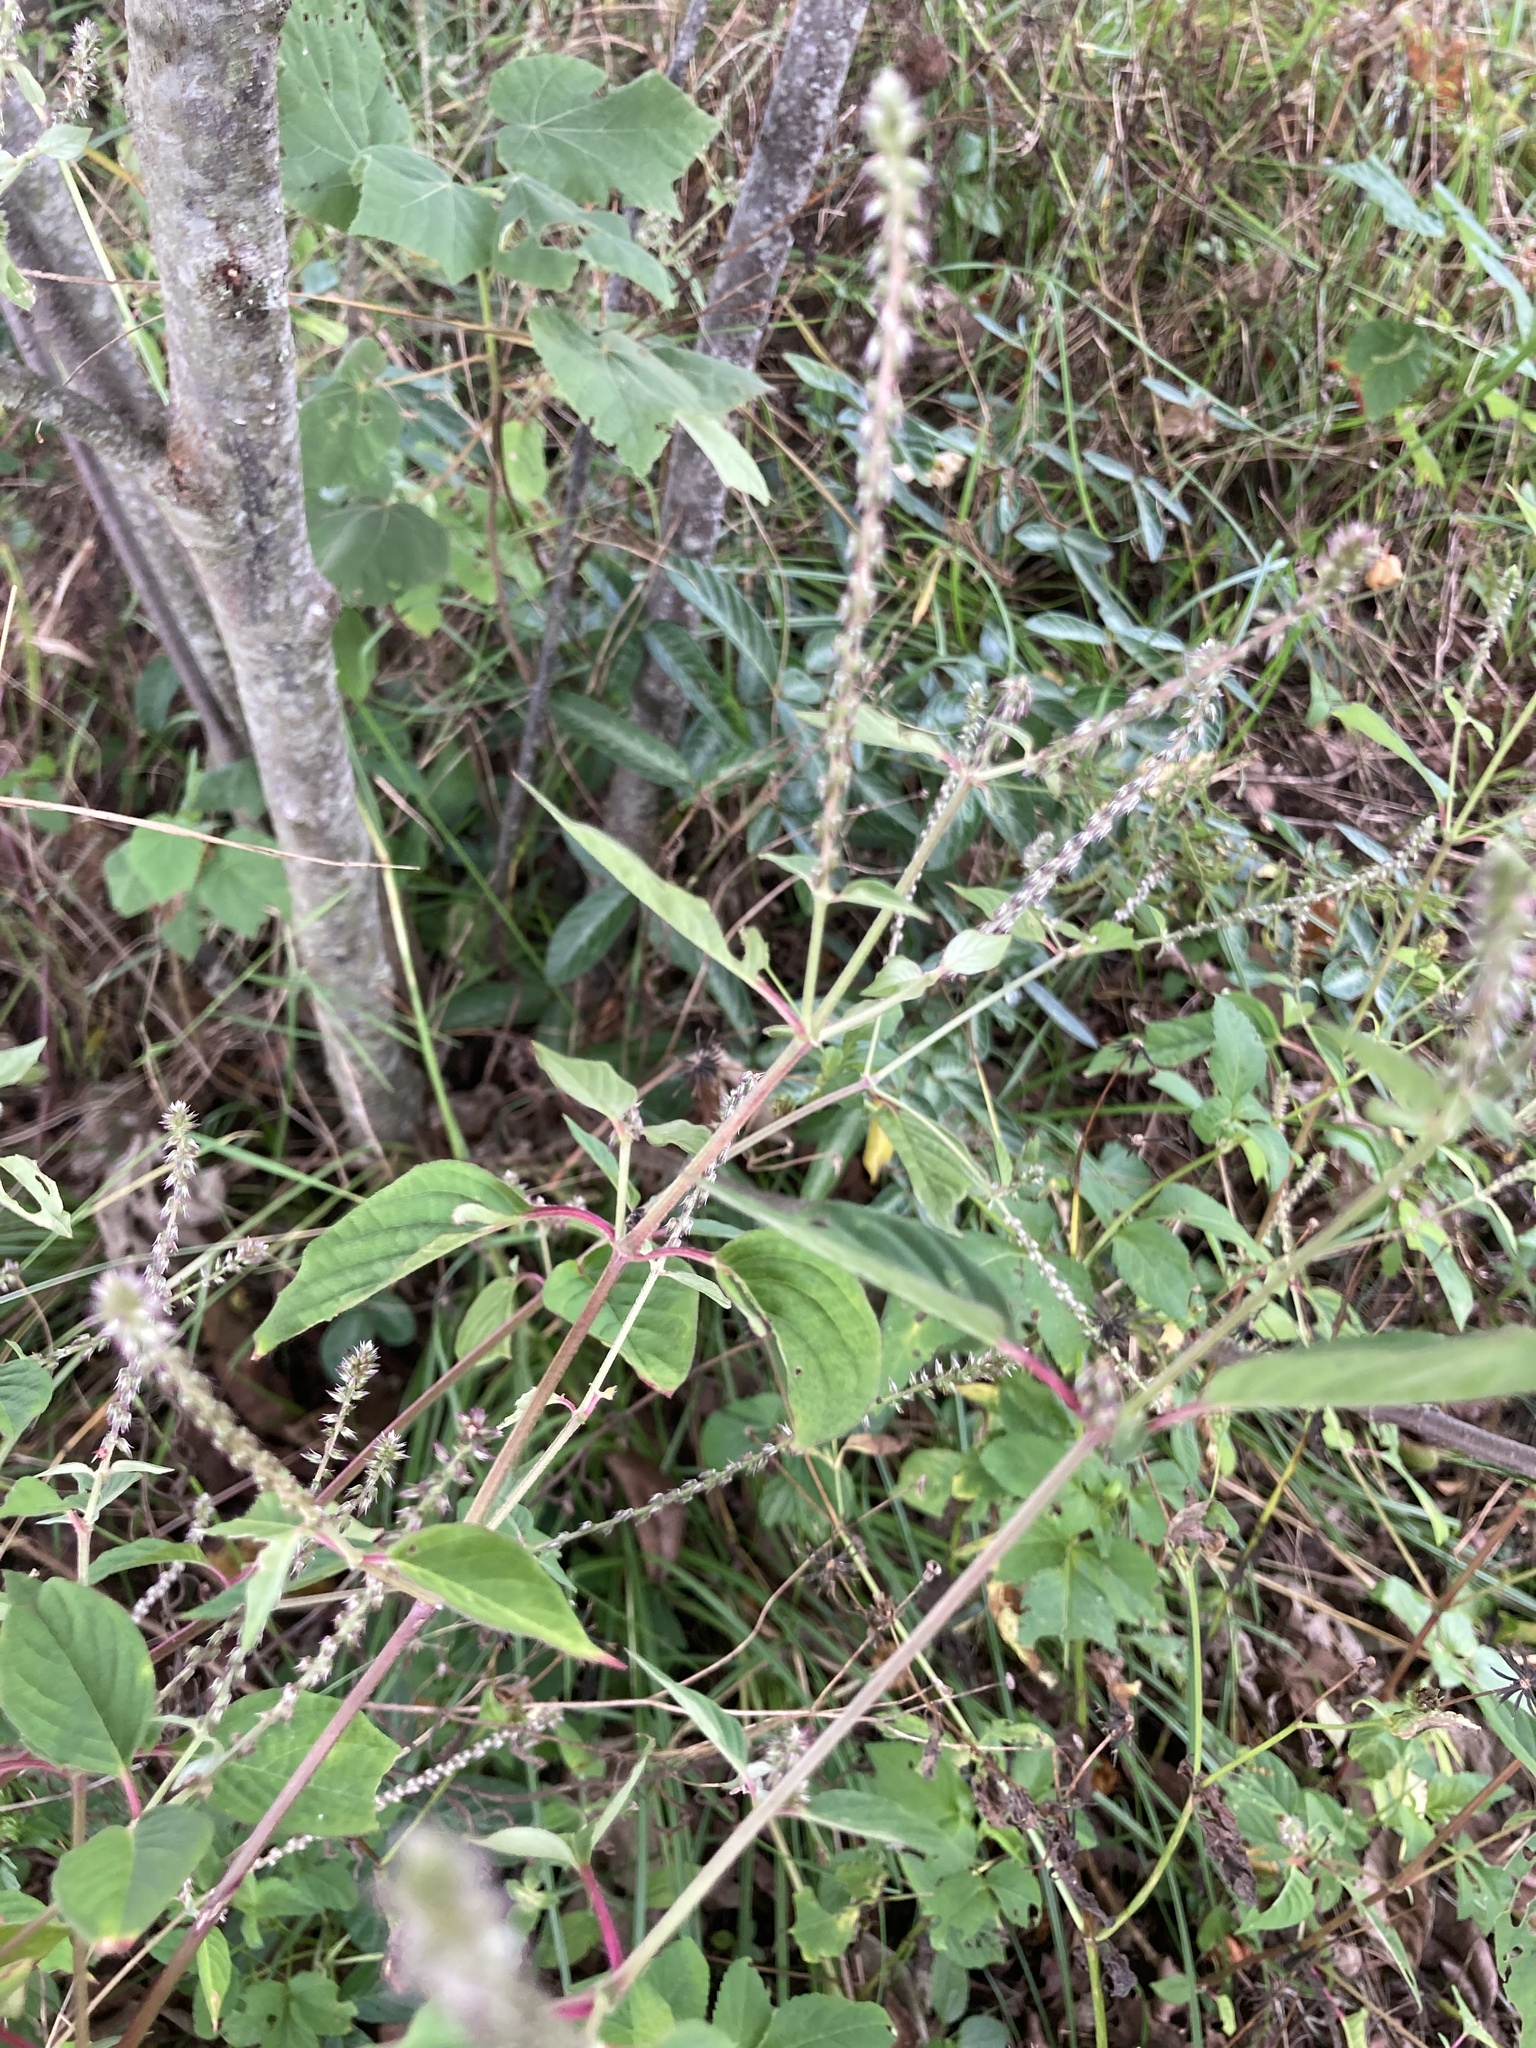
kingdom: Plantae
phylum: Tracheophyta
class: Magnoliopsida
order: Caryophyllales
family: Amaranthaceae
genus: Achyranthes
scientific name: Achyranthes aspera
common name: Devil's horsewhip
